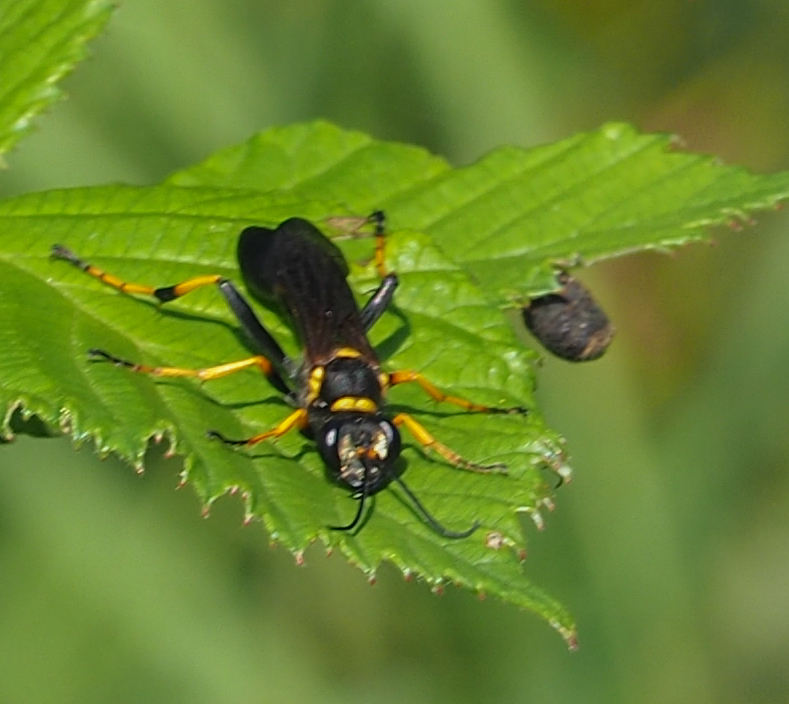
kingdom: Animalia
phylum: Arthropoda
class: Insecta
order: Hymenoptera
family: Sphecidae
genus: Sceliphron
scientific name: Sceliphron caementarium
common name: Mud dauber
